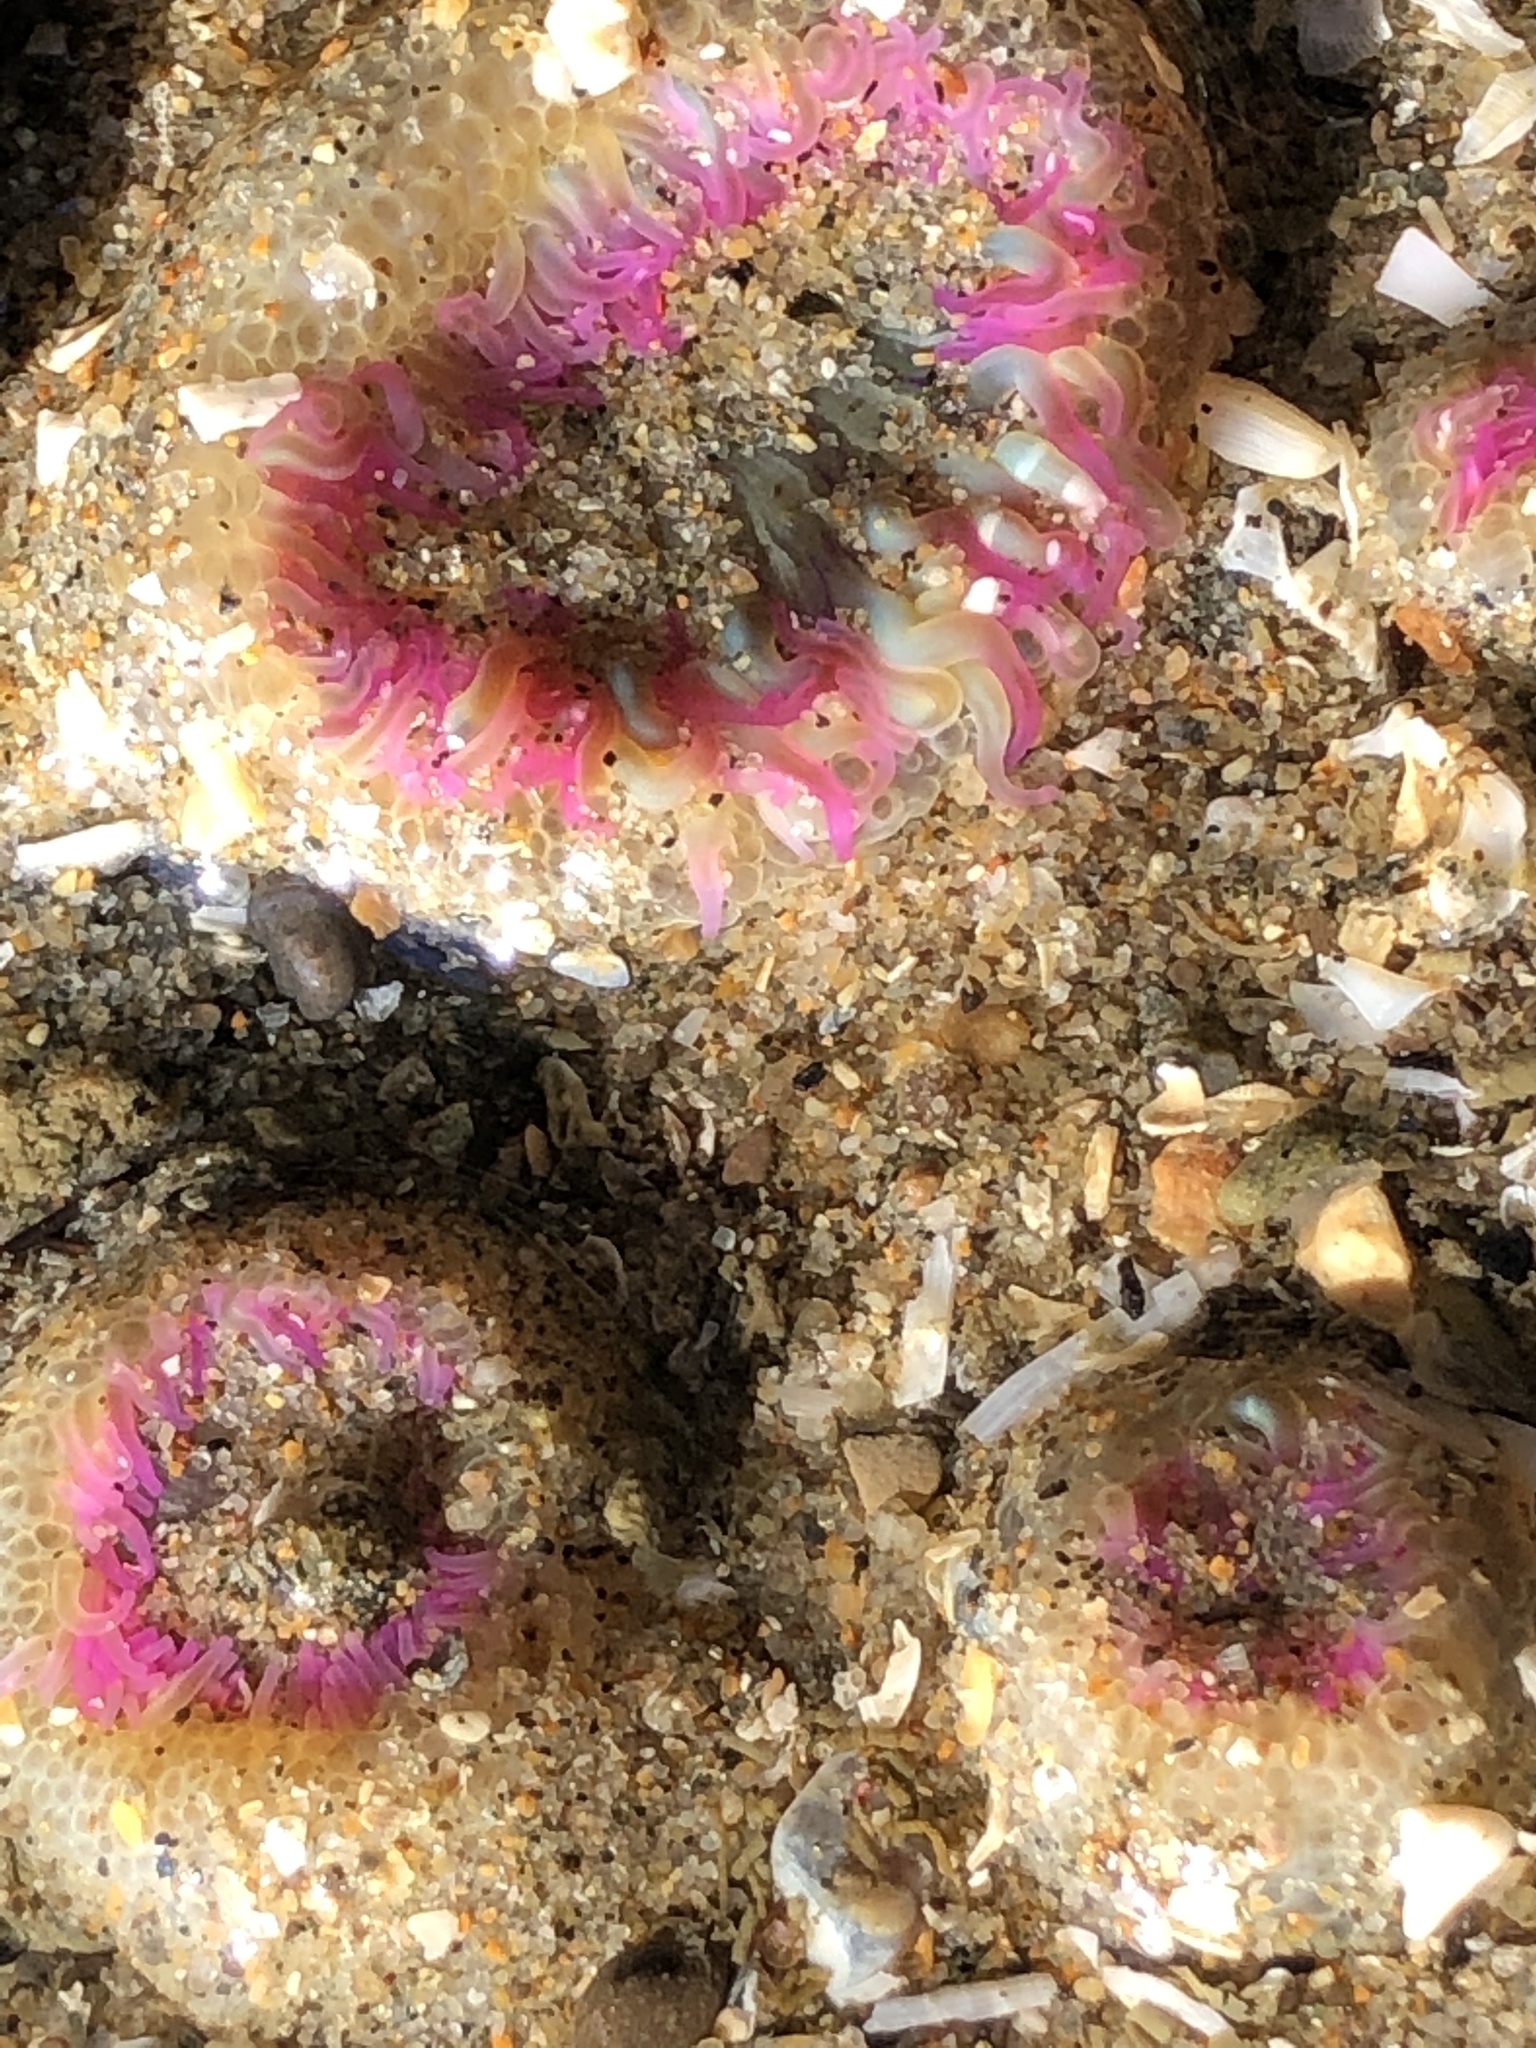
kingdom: Animalia
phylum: Cnidaria
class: Anthozoa
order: Actiniaria
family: Actiniidae
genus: Anthopleura
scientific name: Anthopleura elegantissima
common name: Clonal anemone
